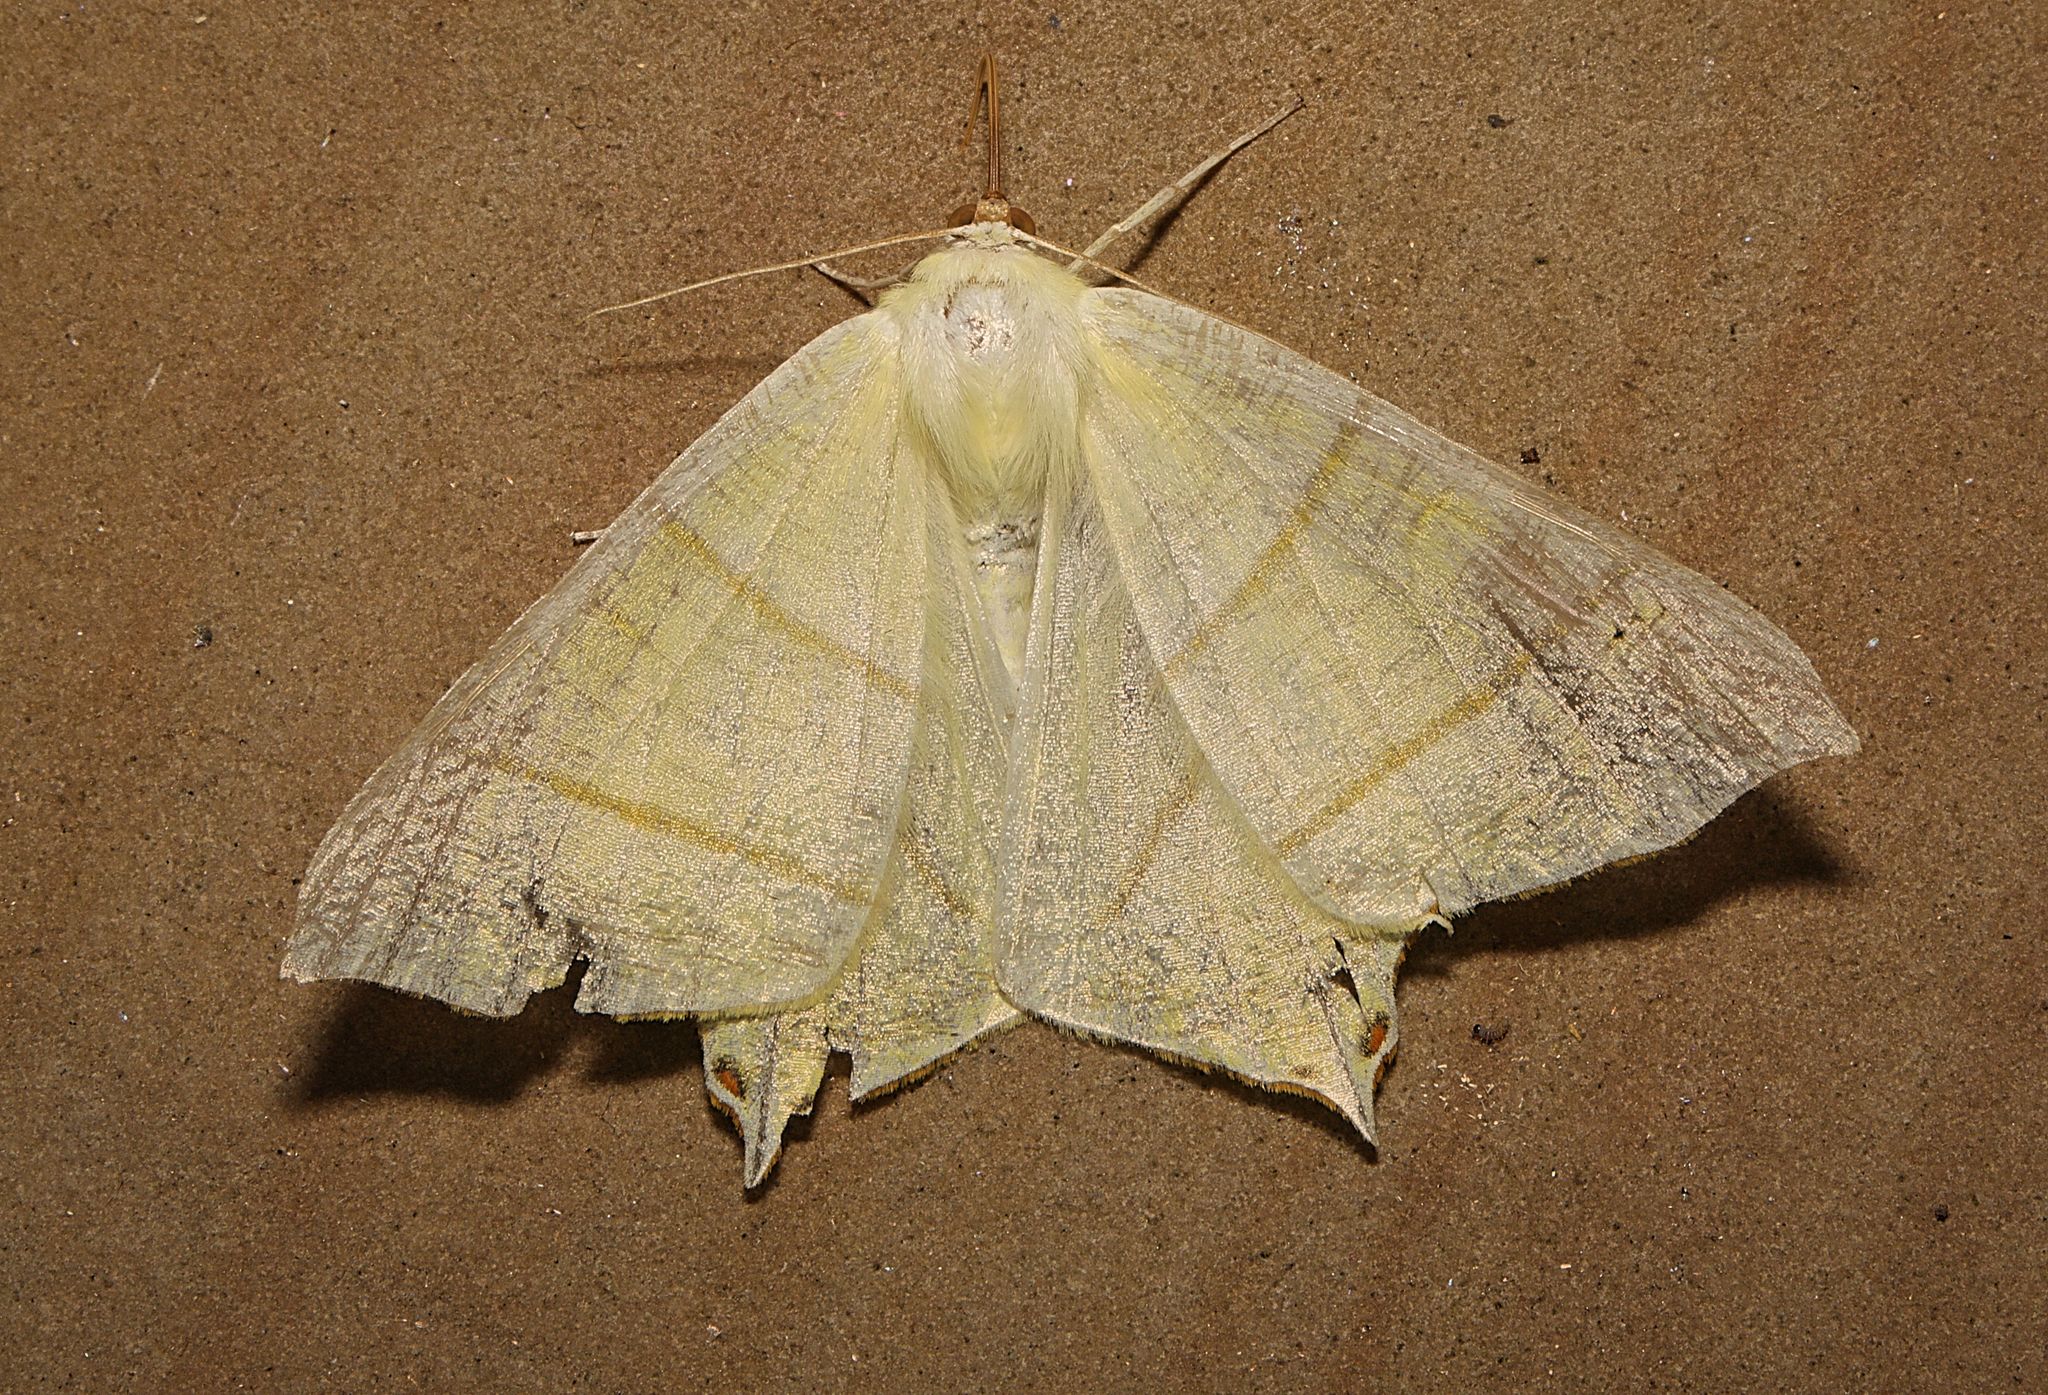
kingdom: Animalia
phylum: Arthropoda
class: Insecta
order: Lepidoptera
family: Geometridae
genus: Ourapteryx
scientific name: Ourapteryx sambucaria
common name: Swallow-tailed moth
